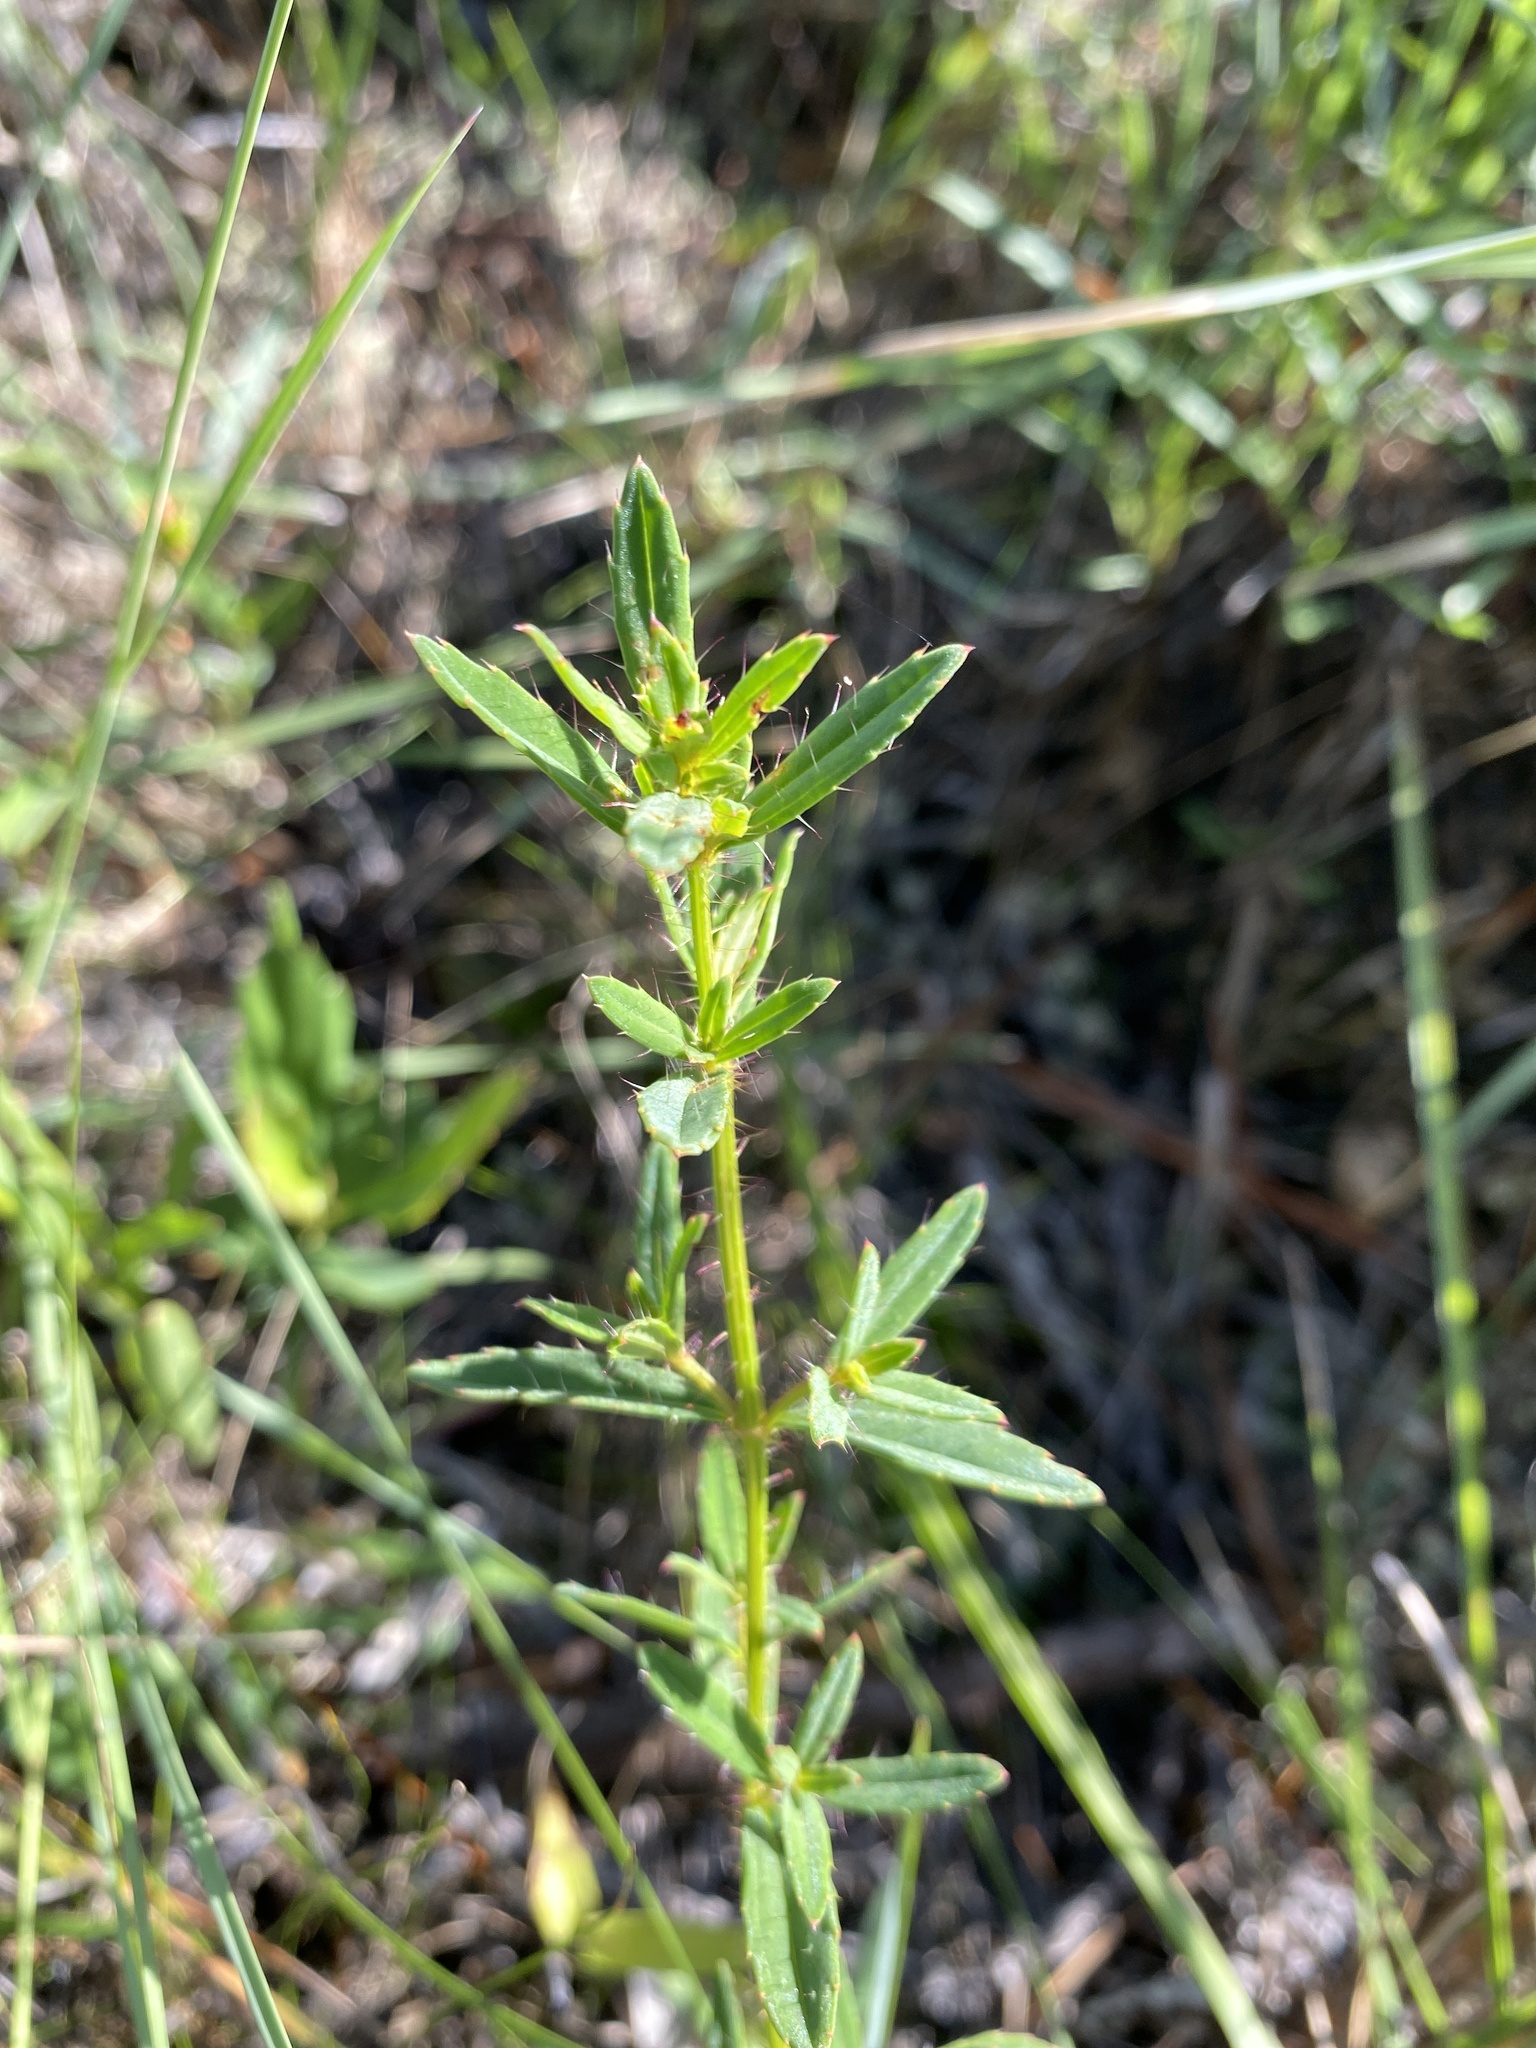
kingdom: Plantae
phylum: Tracheophyta
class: Magnoliopsida
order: Myrtales
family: Melastomataceae
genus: Rhexia
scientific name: Rhexia lutea
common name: Golden meadow-beauty
